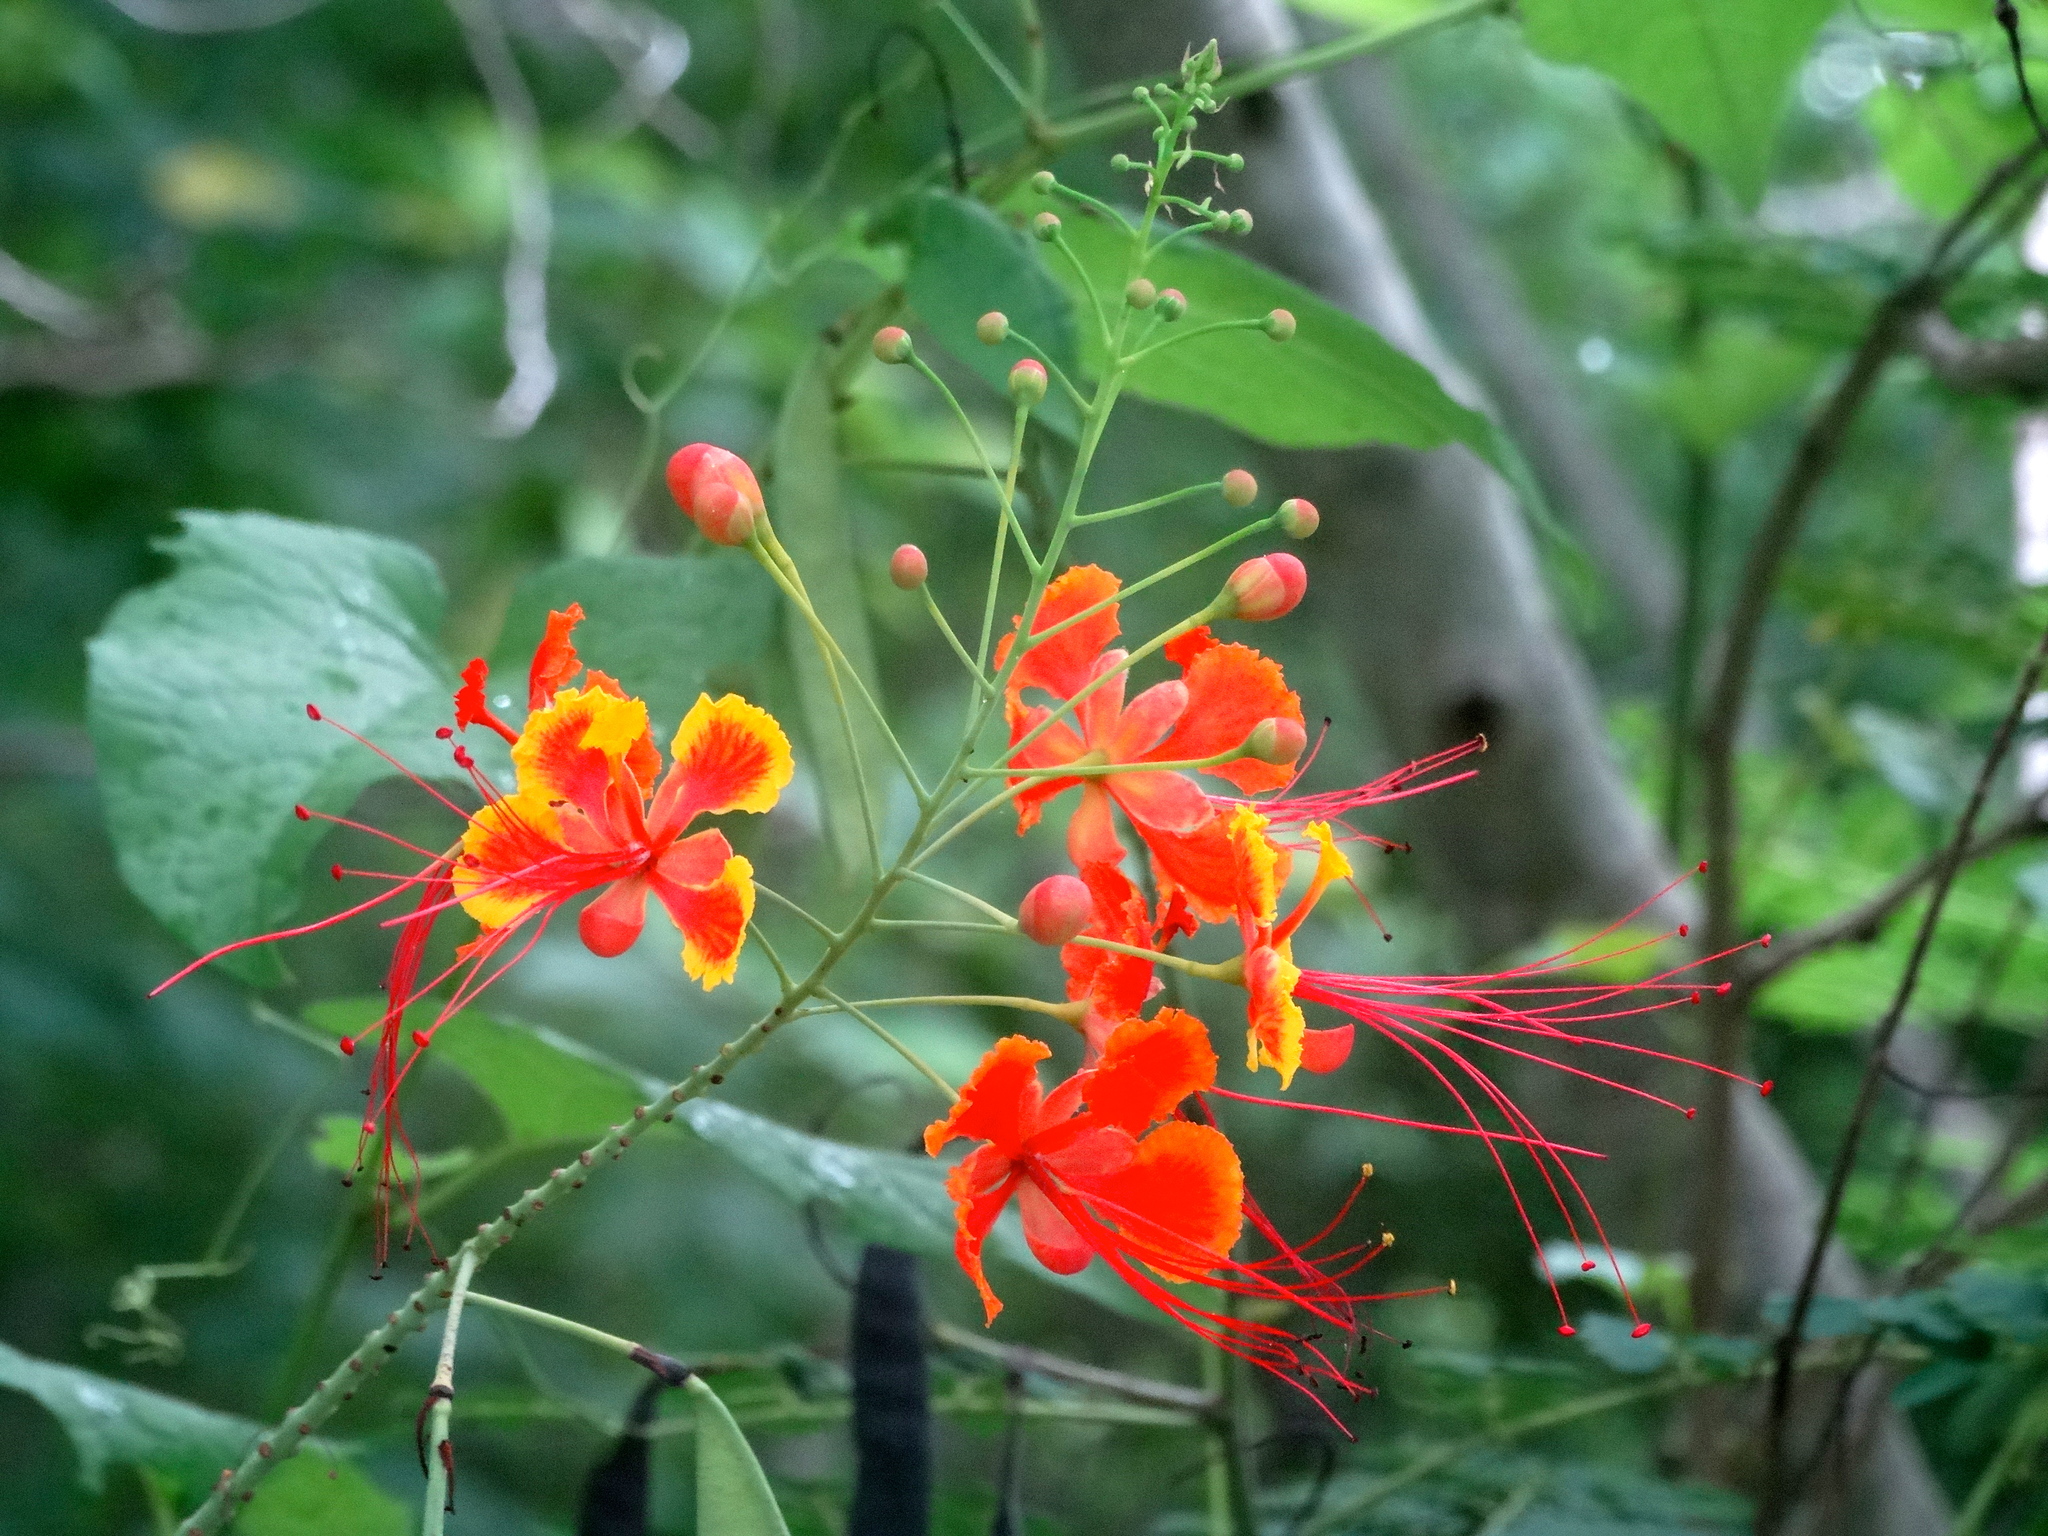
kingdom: Plantae
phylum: Tracheophyta
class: Magnoliopsida
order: Fabales
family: Fabaceae
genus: Caesalpinia
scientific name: Caesalpinia pulcherrima
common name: Pride-of-barbados
